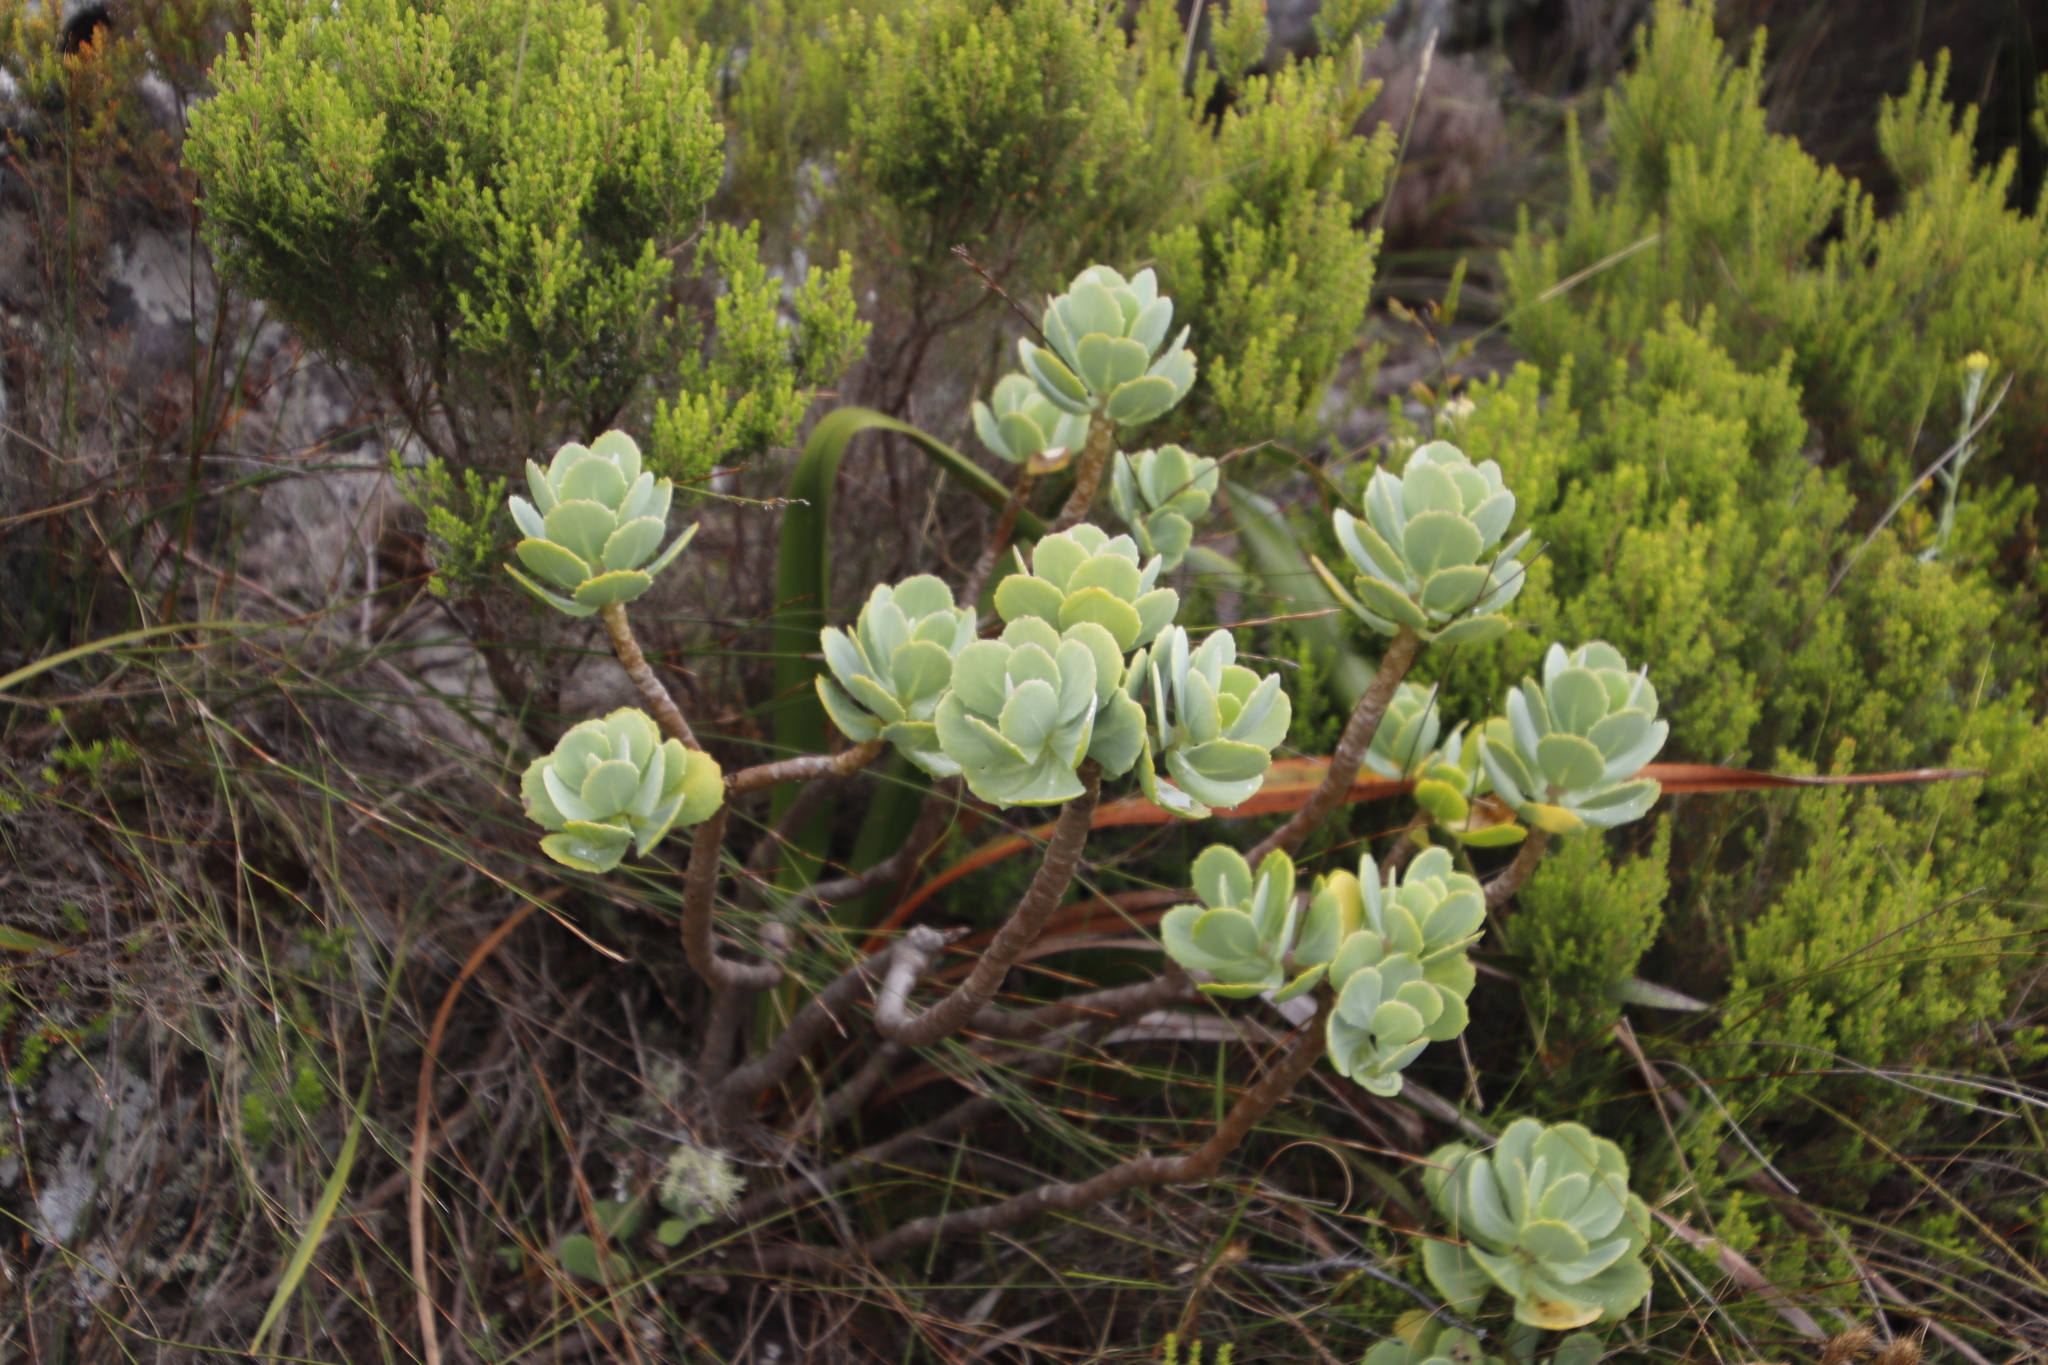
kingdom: Plantae
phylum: Tracheophyta
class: Magnoliopsida
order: Asterales
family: Asteraceae
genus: Othonna
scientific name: Othonna dentata
